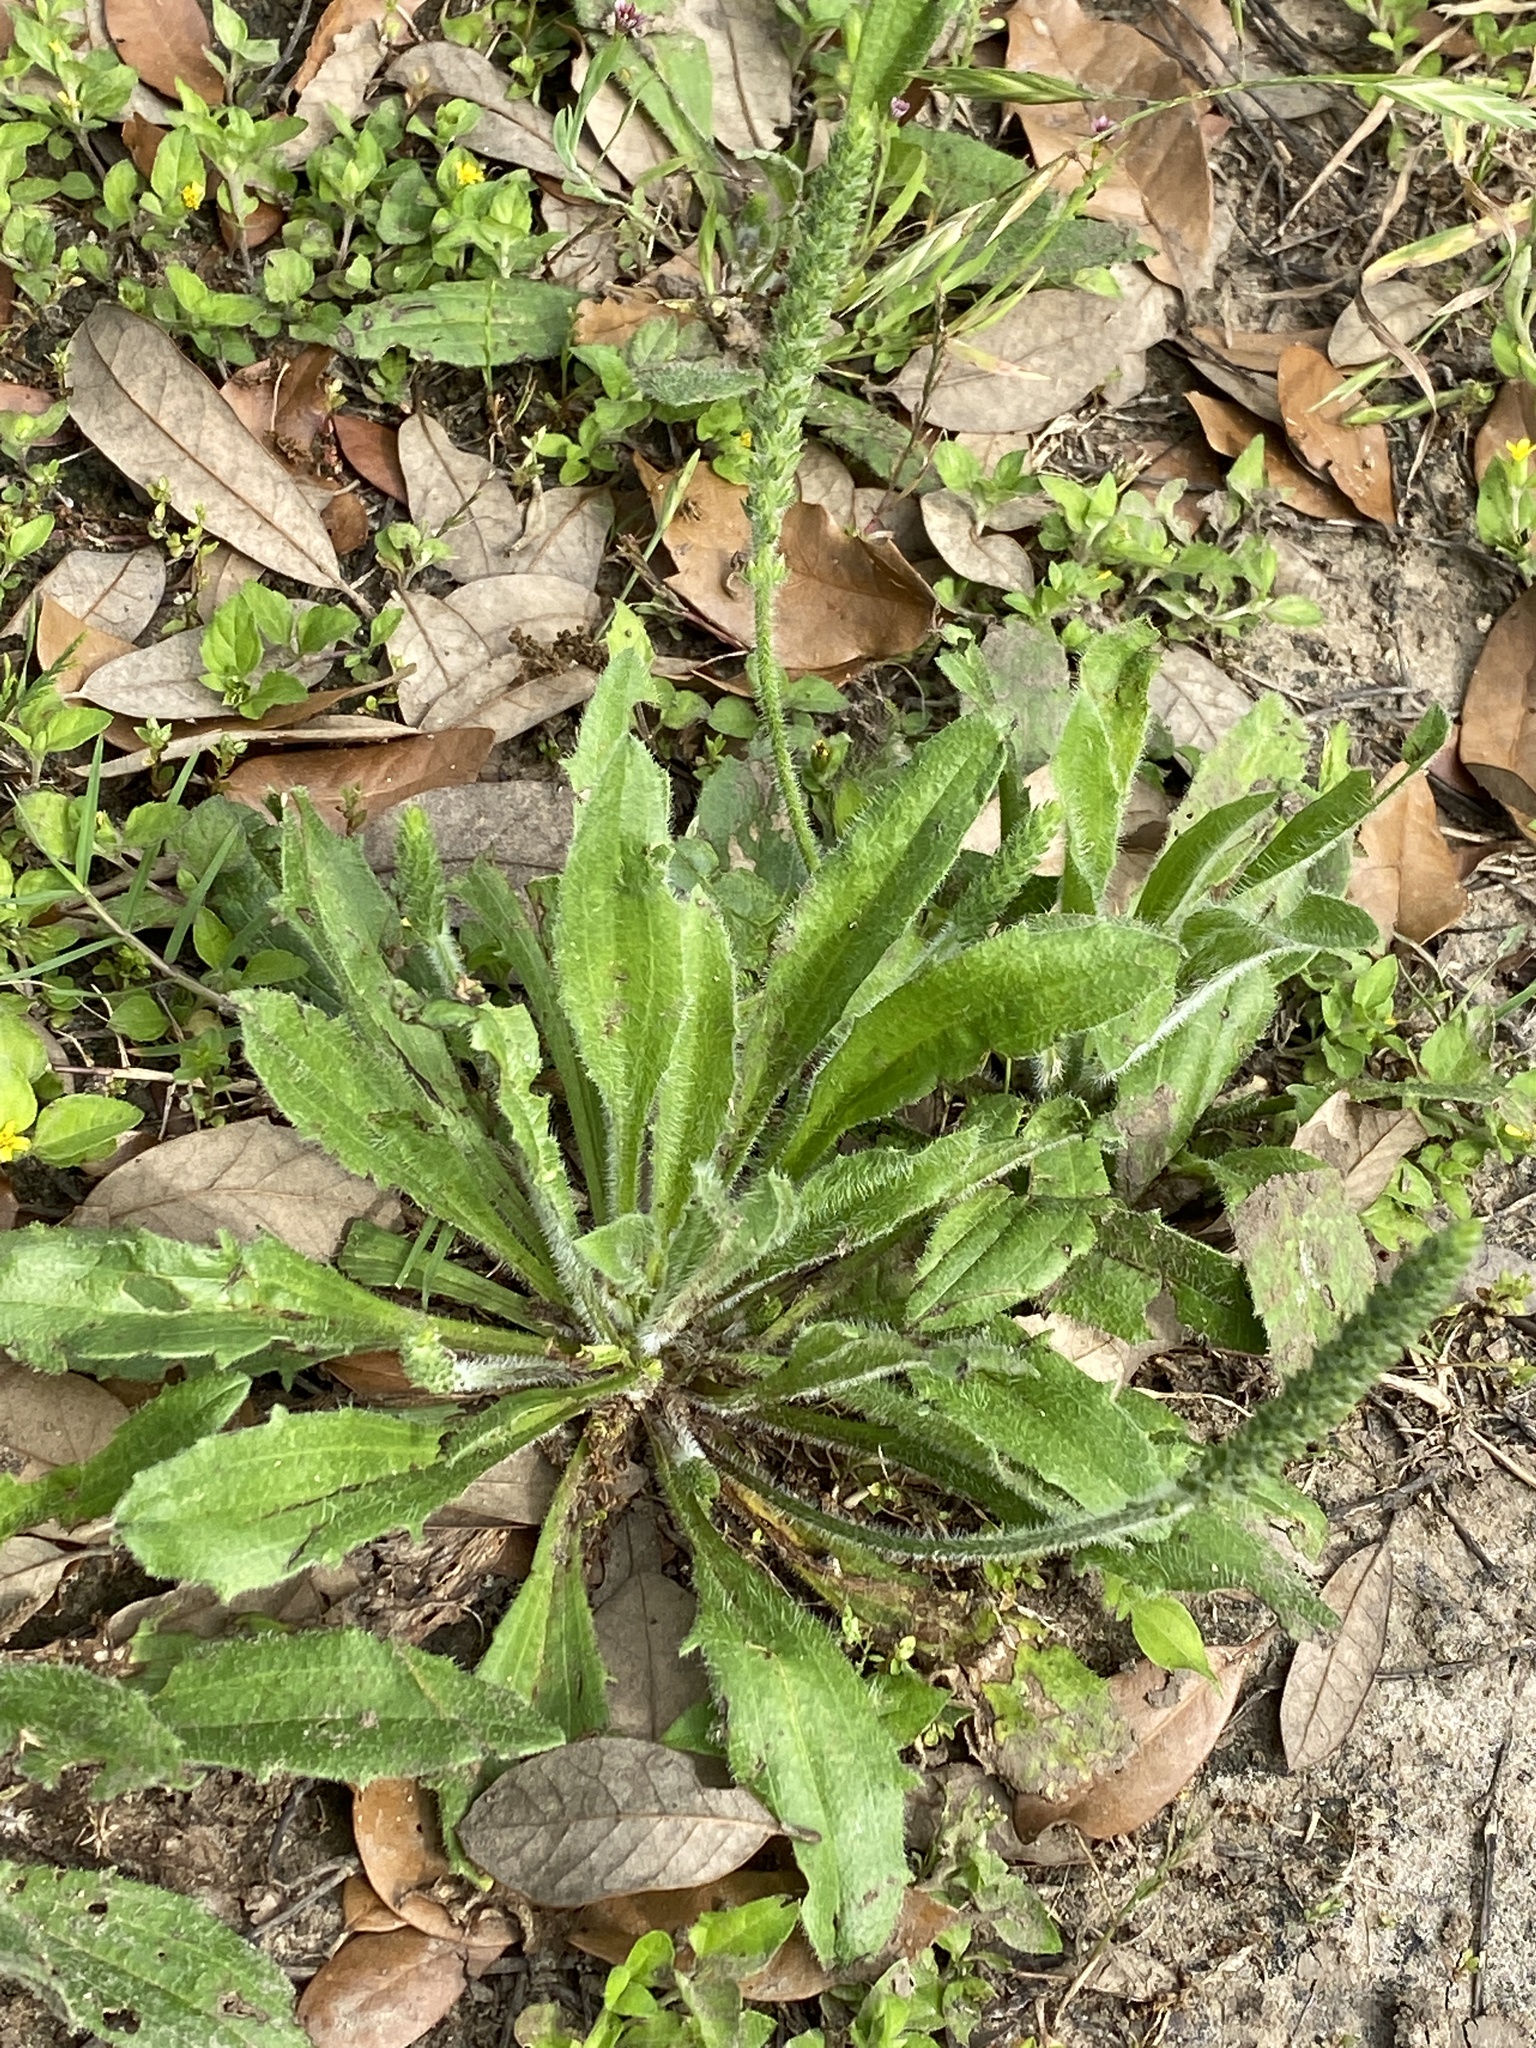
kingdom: Plantae
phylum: Tracheophyta
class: Magnoliopsida
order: Lamiales
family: Plantaginaceae
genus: Plantago
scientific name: Plantago rhodosperma
